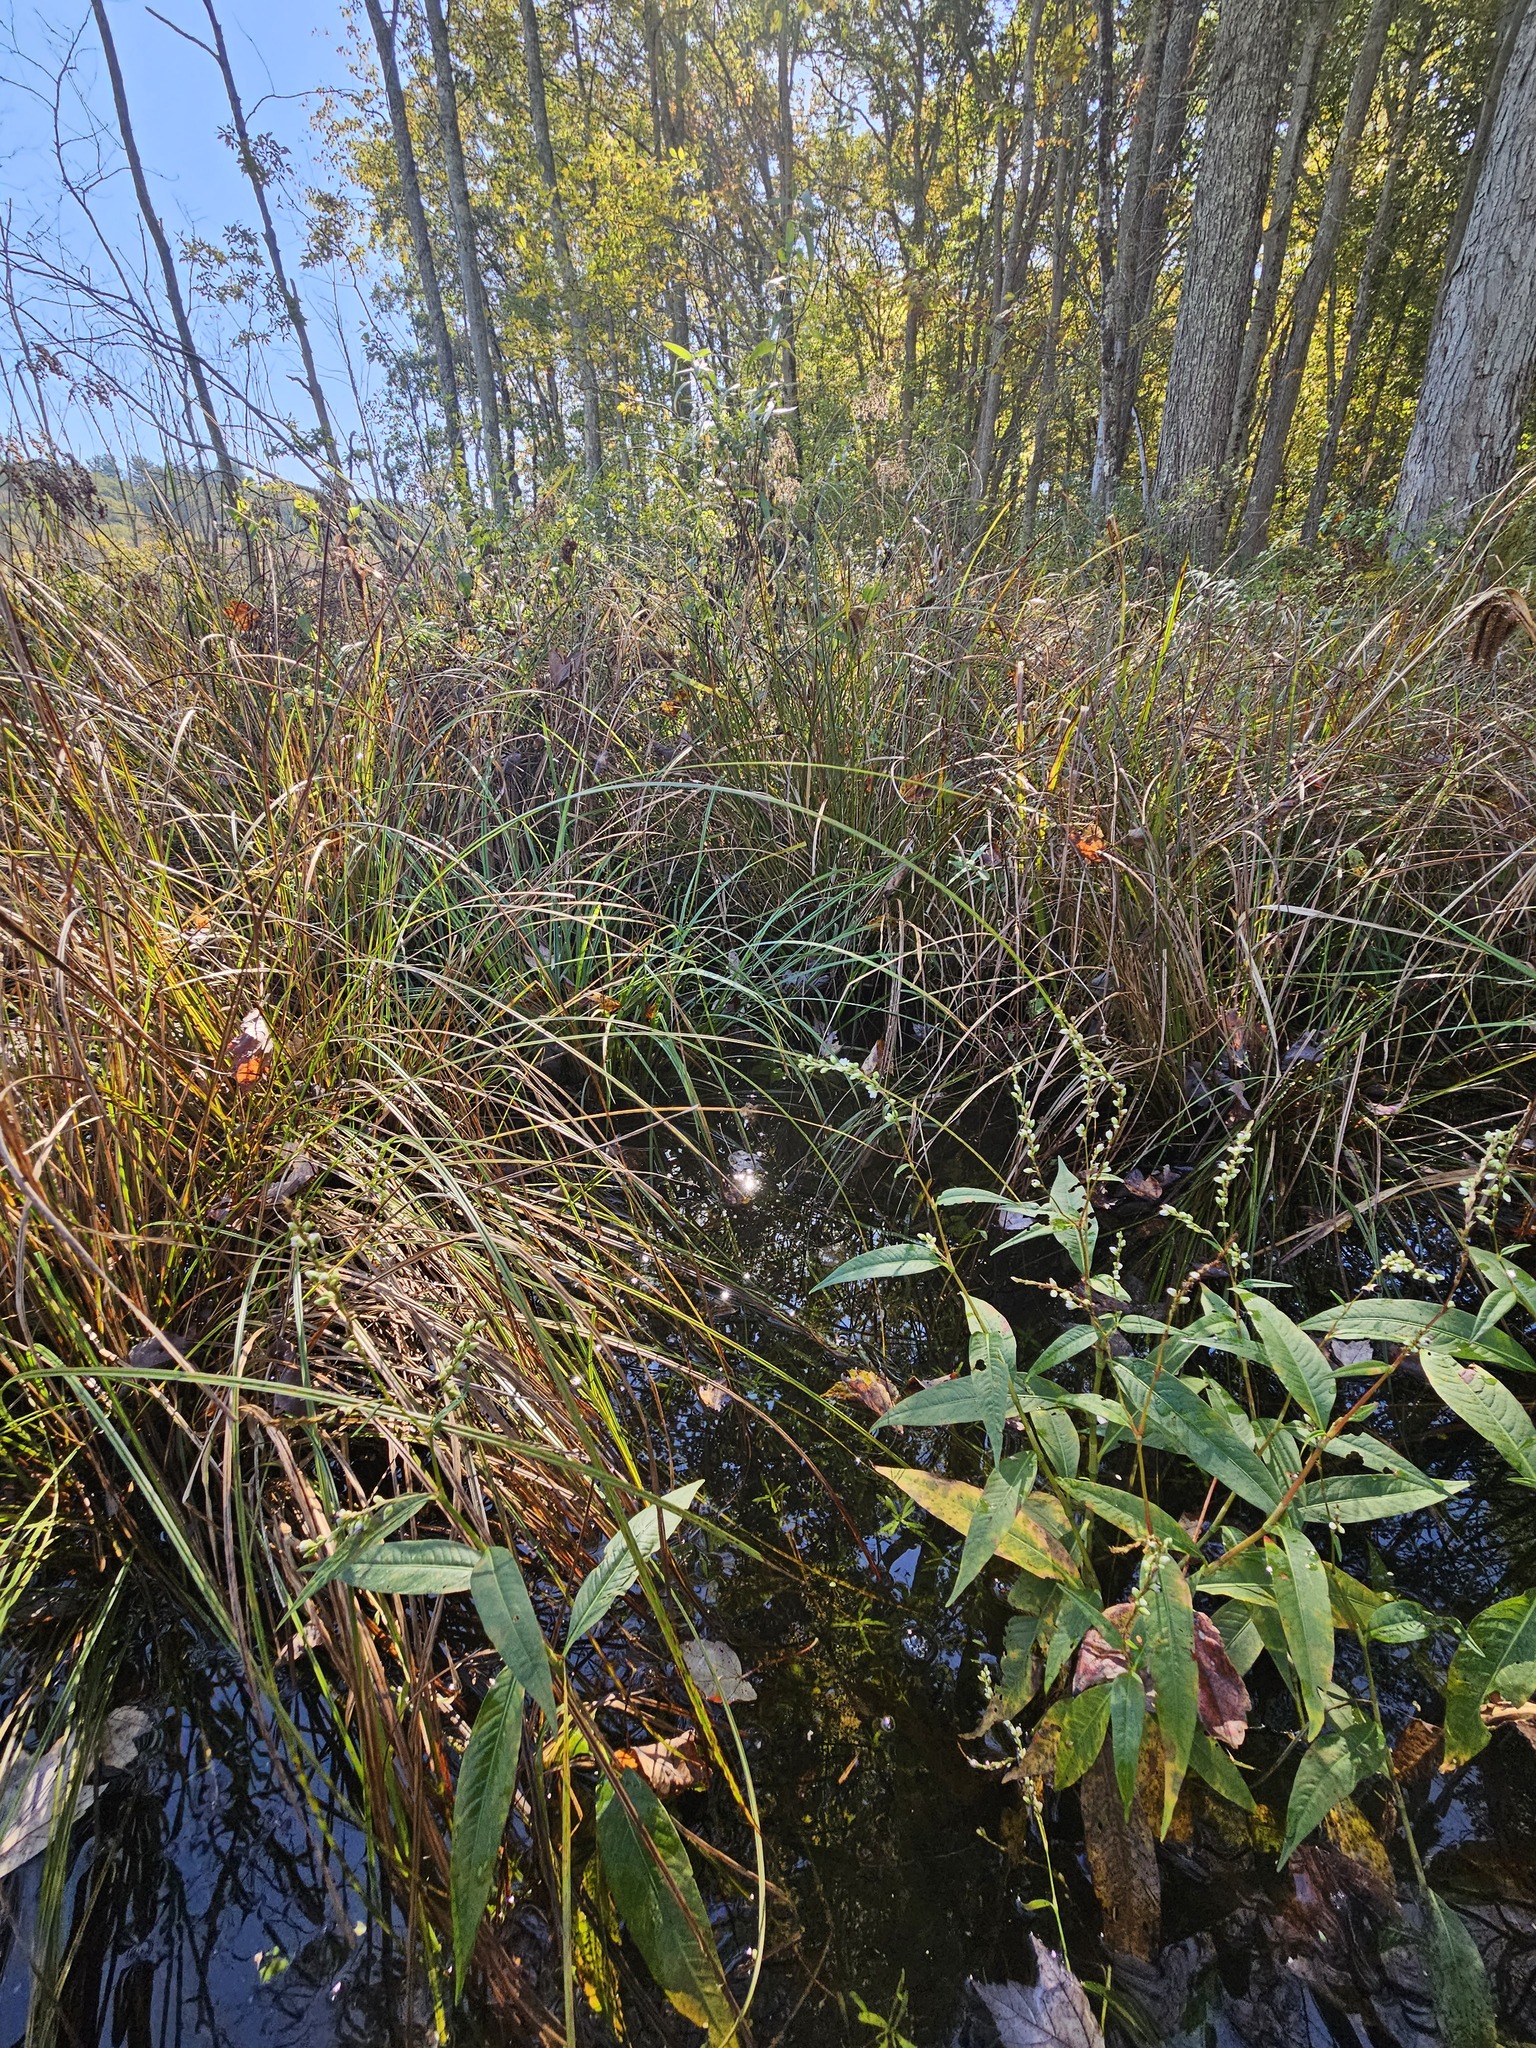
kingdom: Plantae
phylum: Tracheophyta
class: Magnoliopsida
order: Caryophyllales
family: Polygonaceae
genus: Persicaria
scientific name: Persicaria robustior
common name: Stout smartweed
